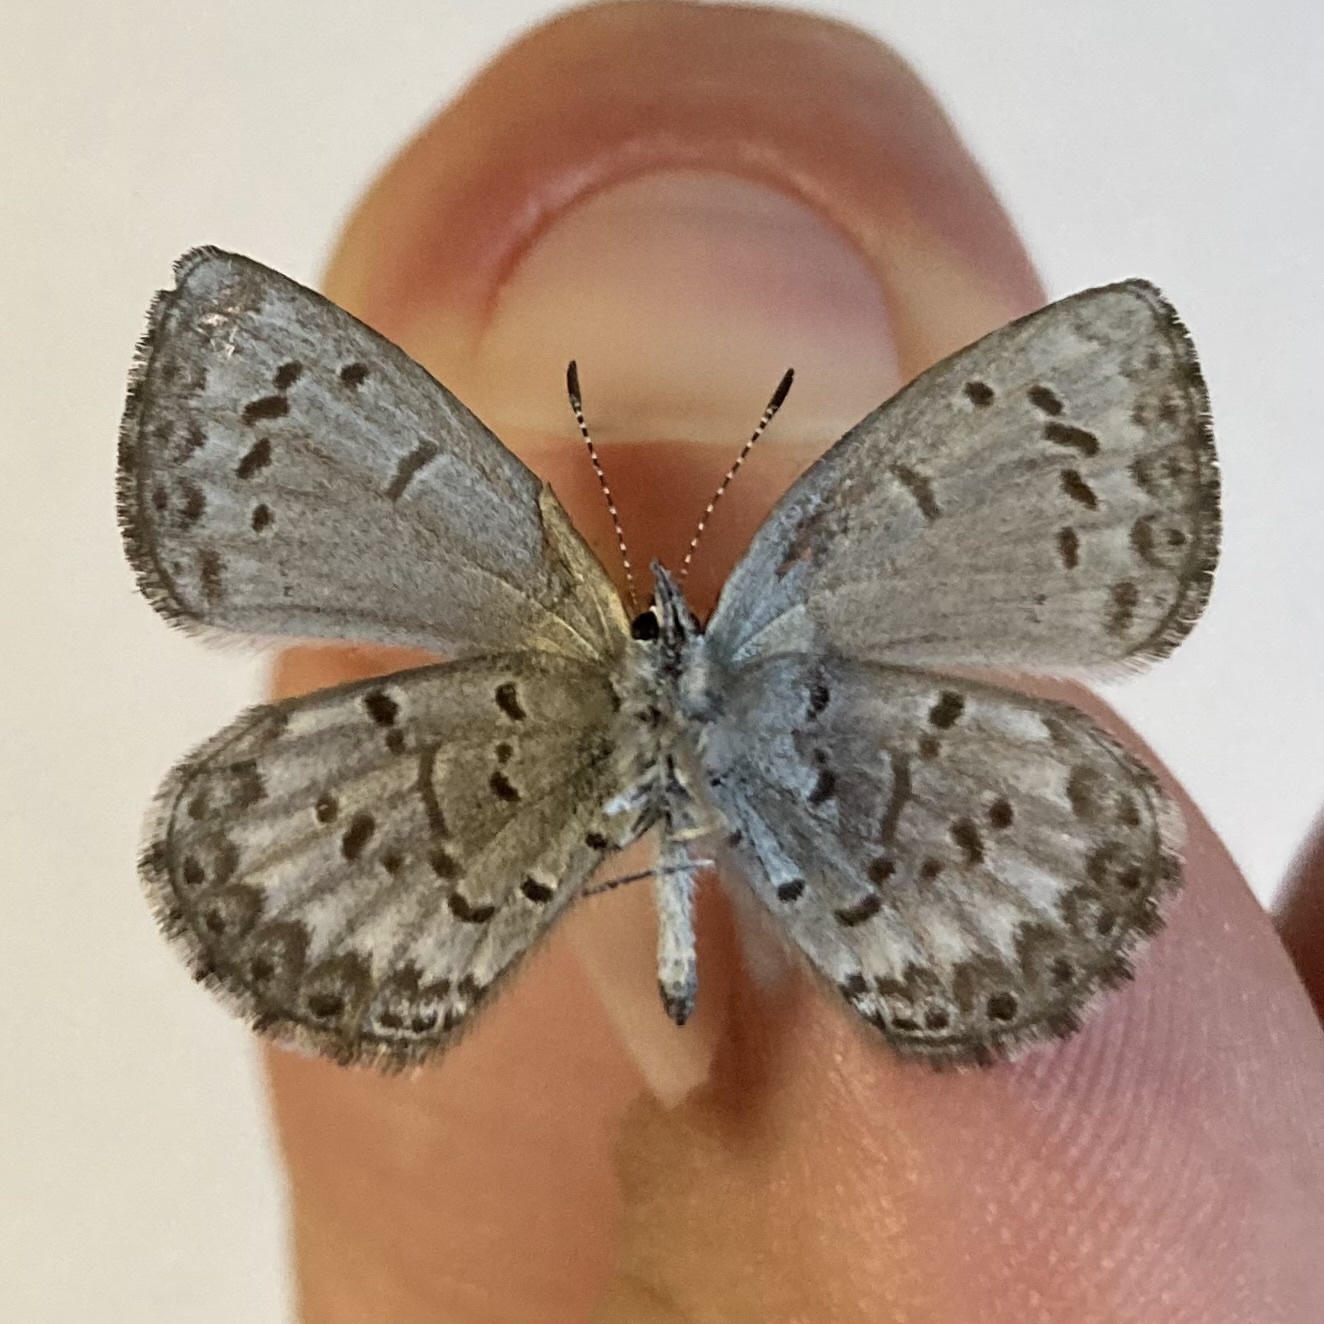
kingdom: Animalia
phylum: Arthropoda
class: Insecta
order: Lepidoptera
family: Lycaenidae
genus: Celastrina
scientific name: Celastrina lucia
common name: Lucia azure
